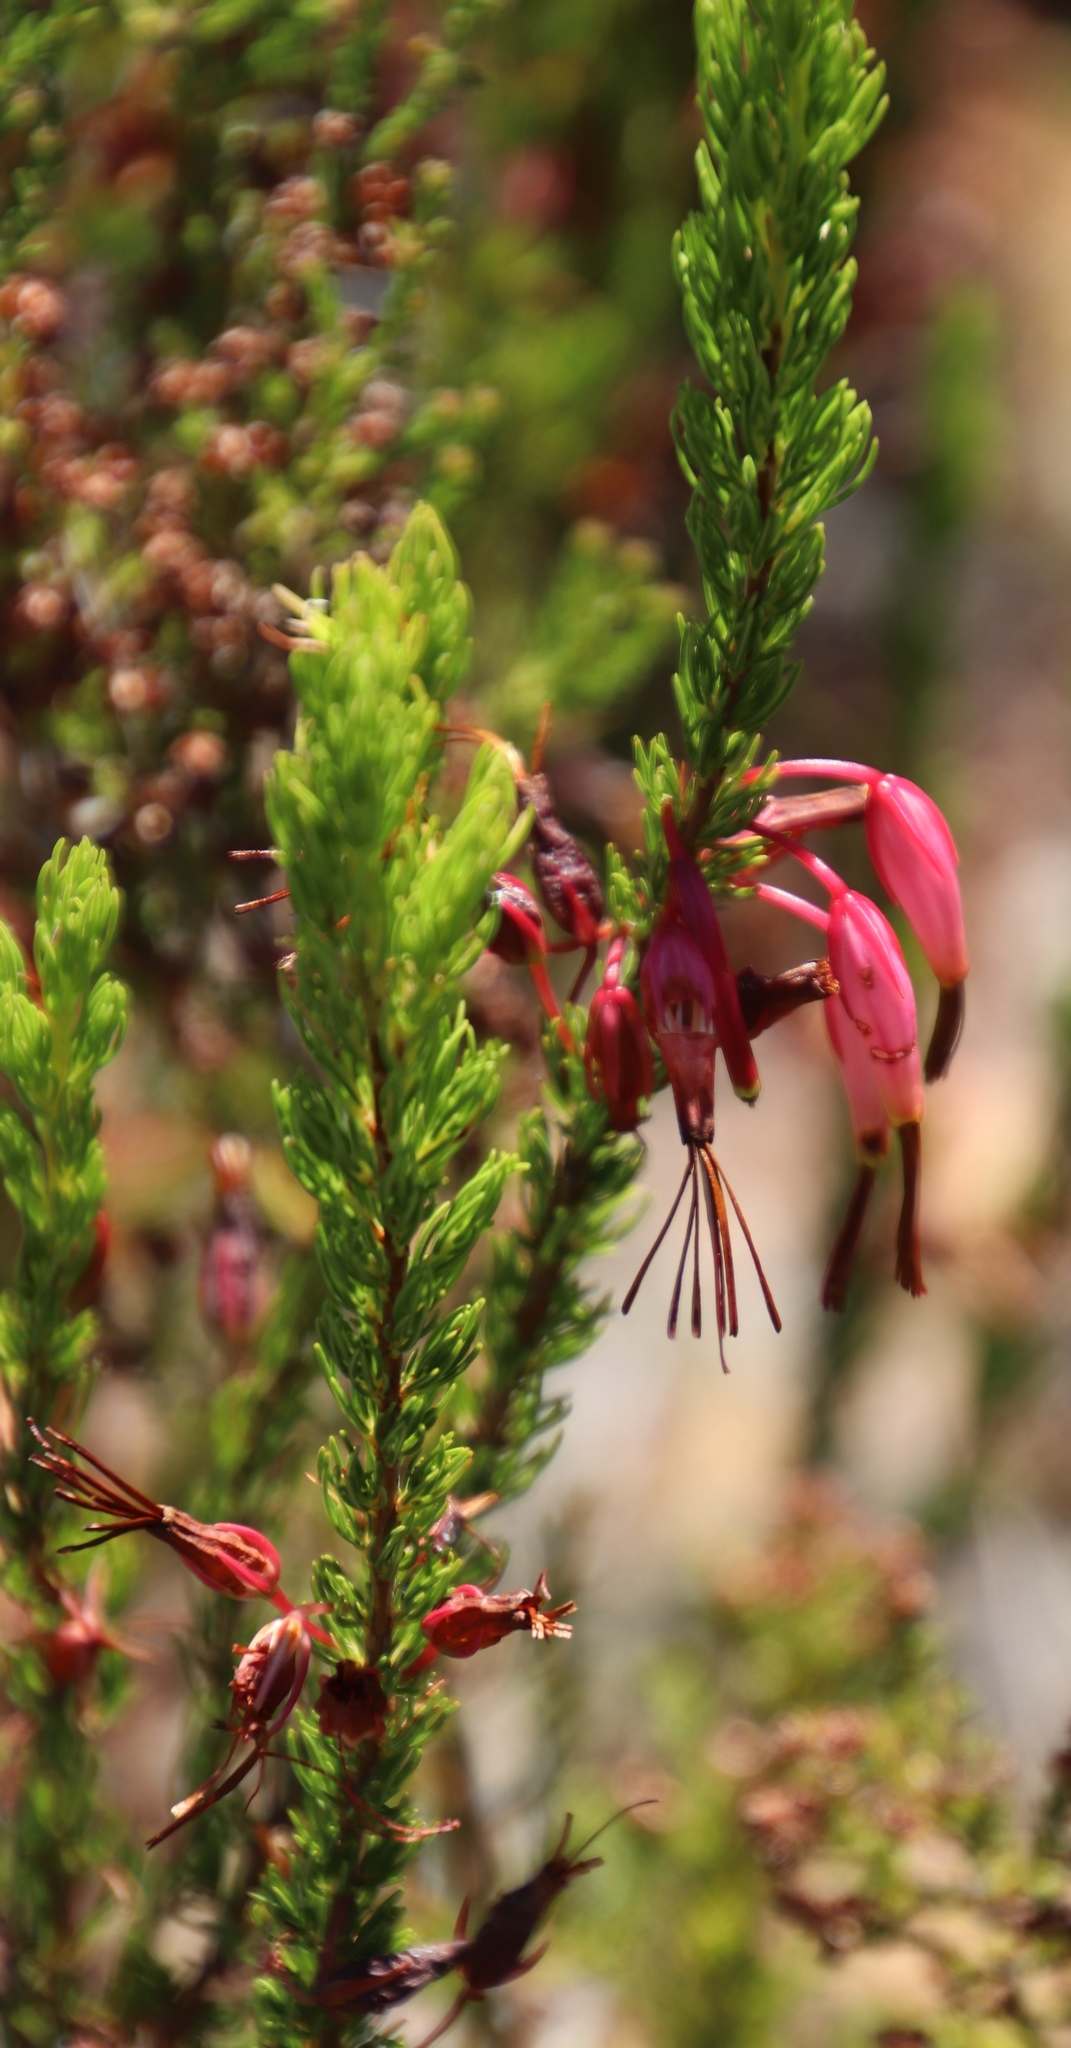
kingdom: Plantae
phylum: Tracheophyta
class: Magnoliopsida
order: Ericales
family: Ericaceae
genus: Erica
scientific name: Erica plukenetii
